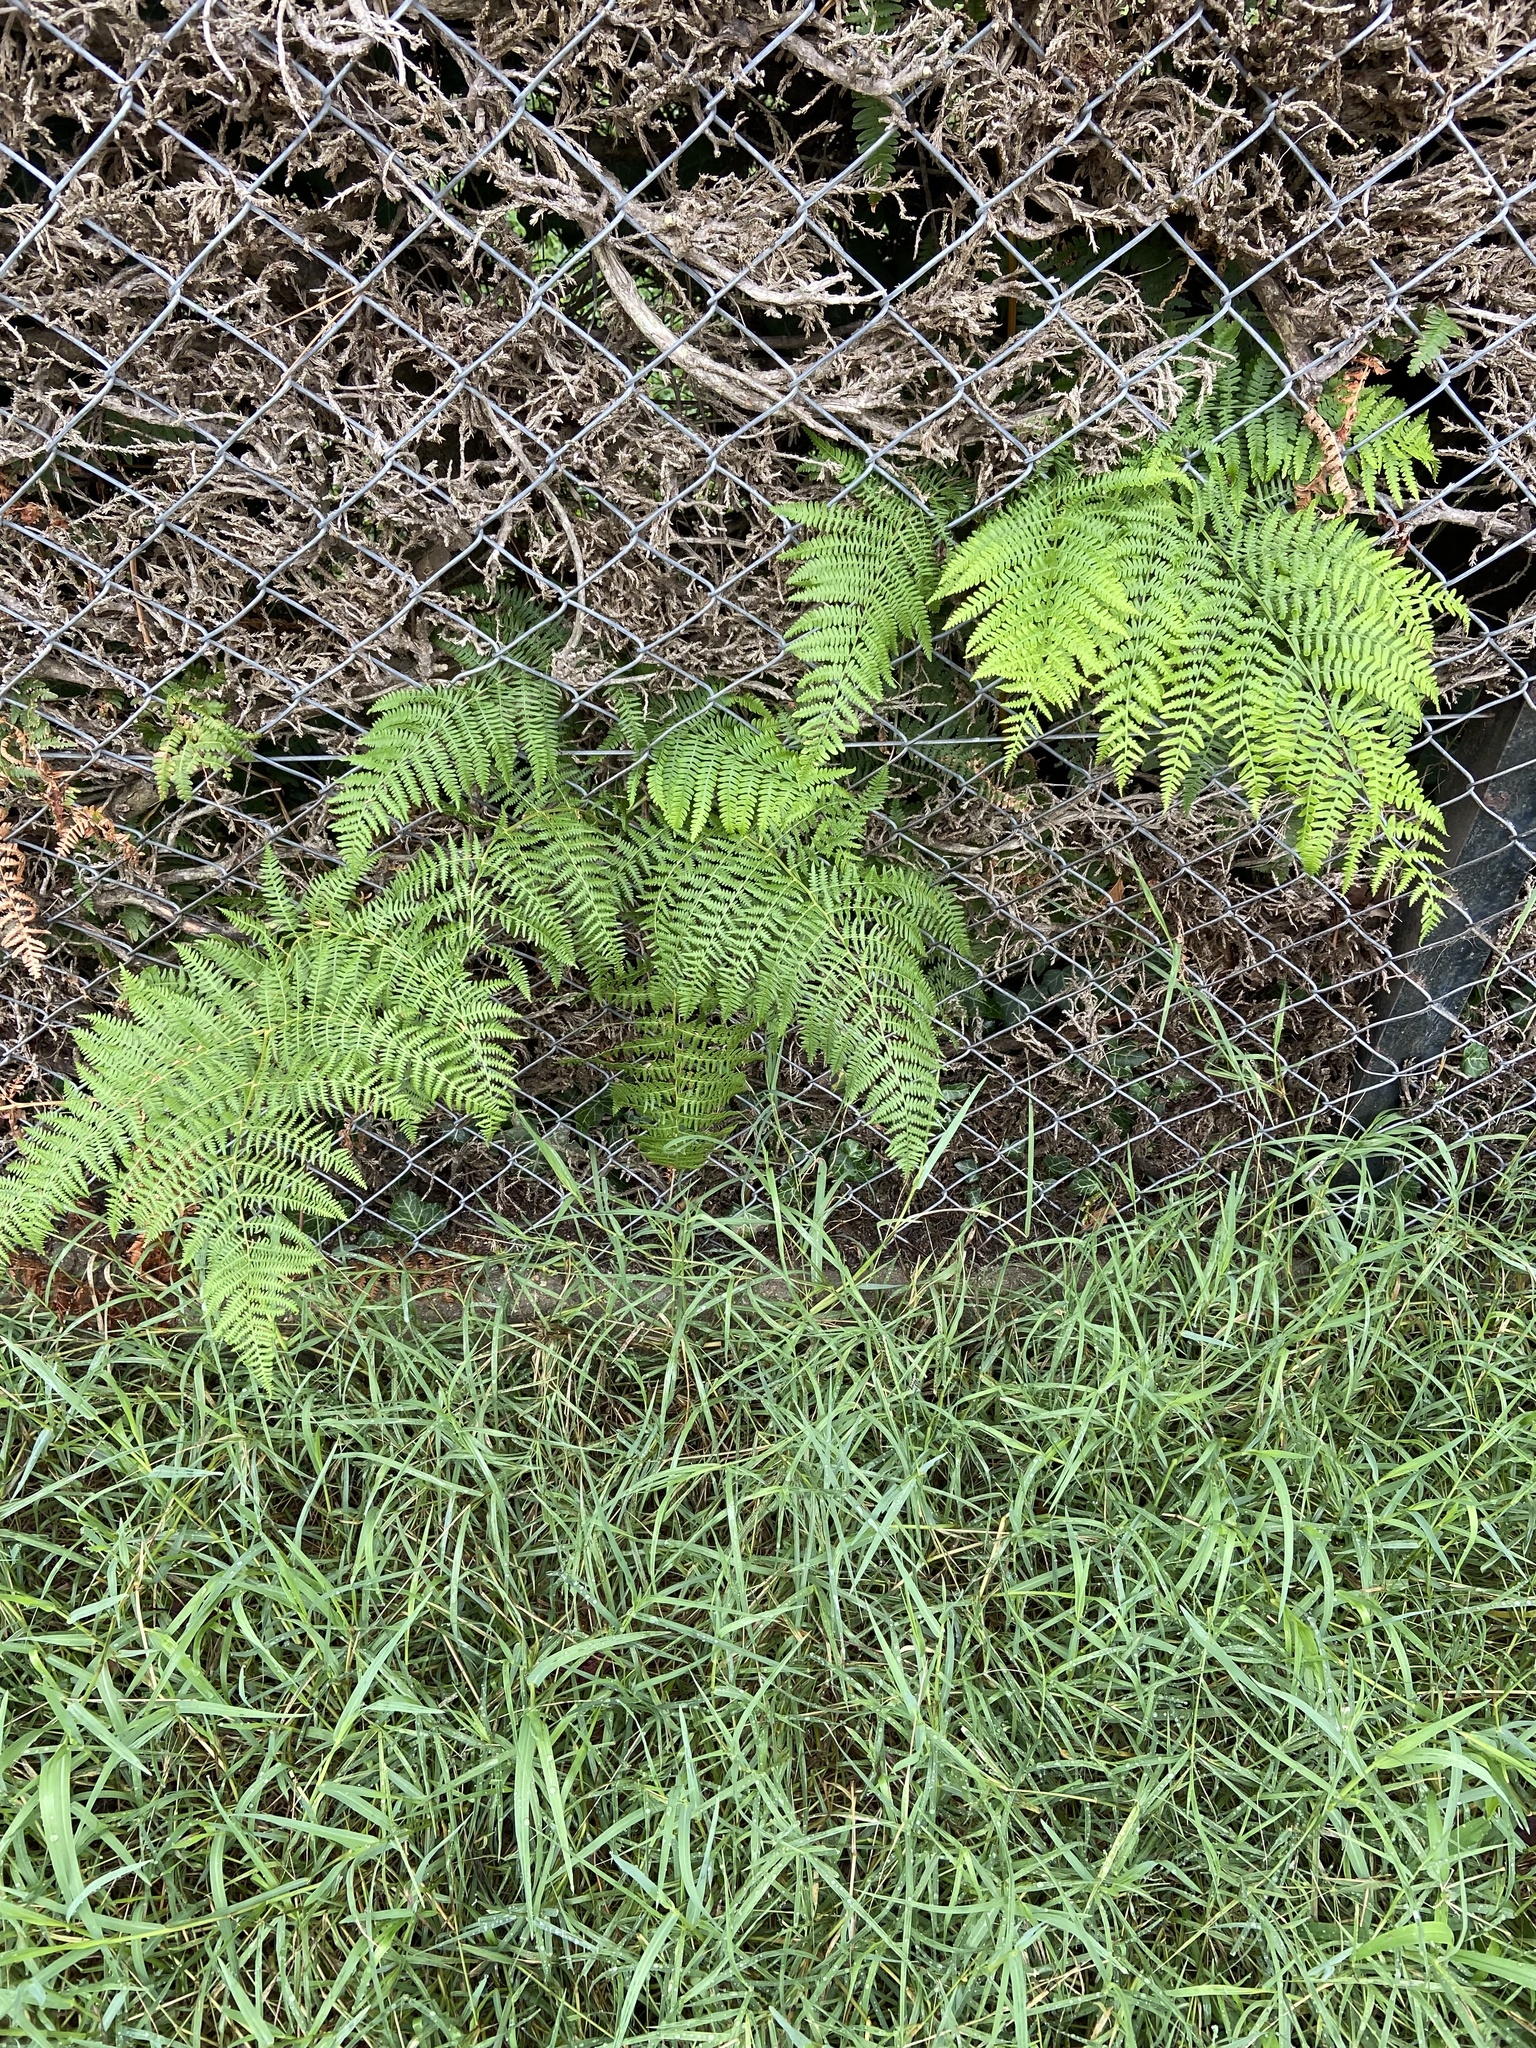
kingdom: Plantae
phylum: Tracheophyta
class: Polypodiopsida
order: Polypodiales
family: Dennstaedtiaceae
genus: Pteridium
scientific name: Pteridium aquilinum
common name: Bracken
